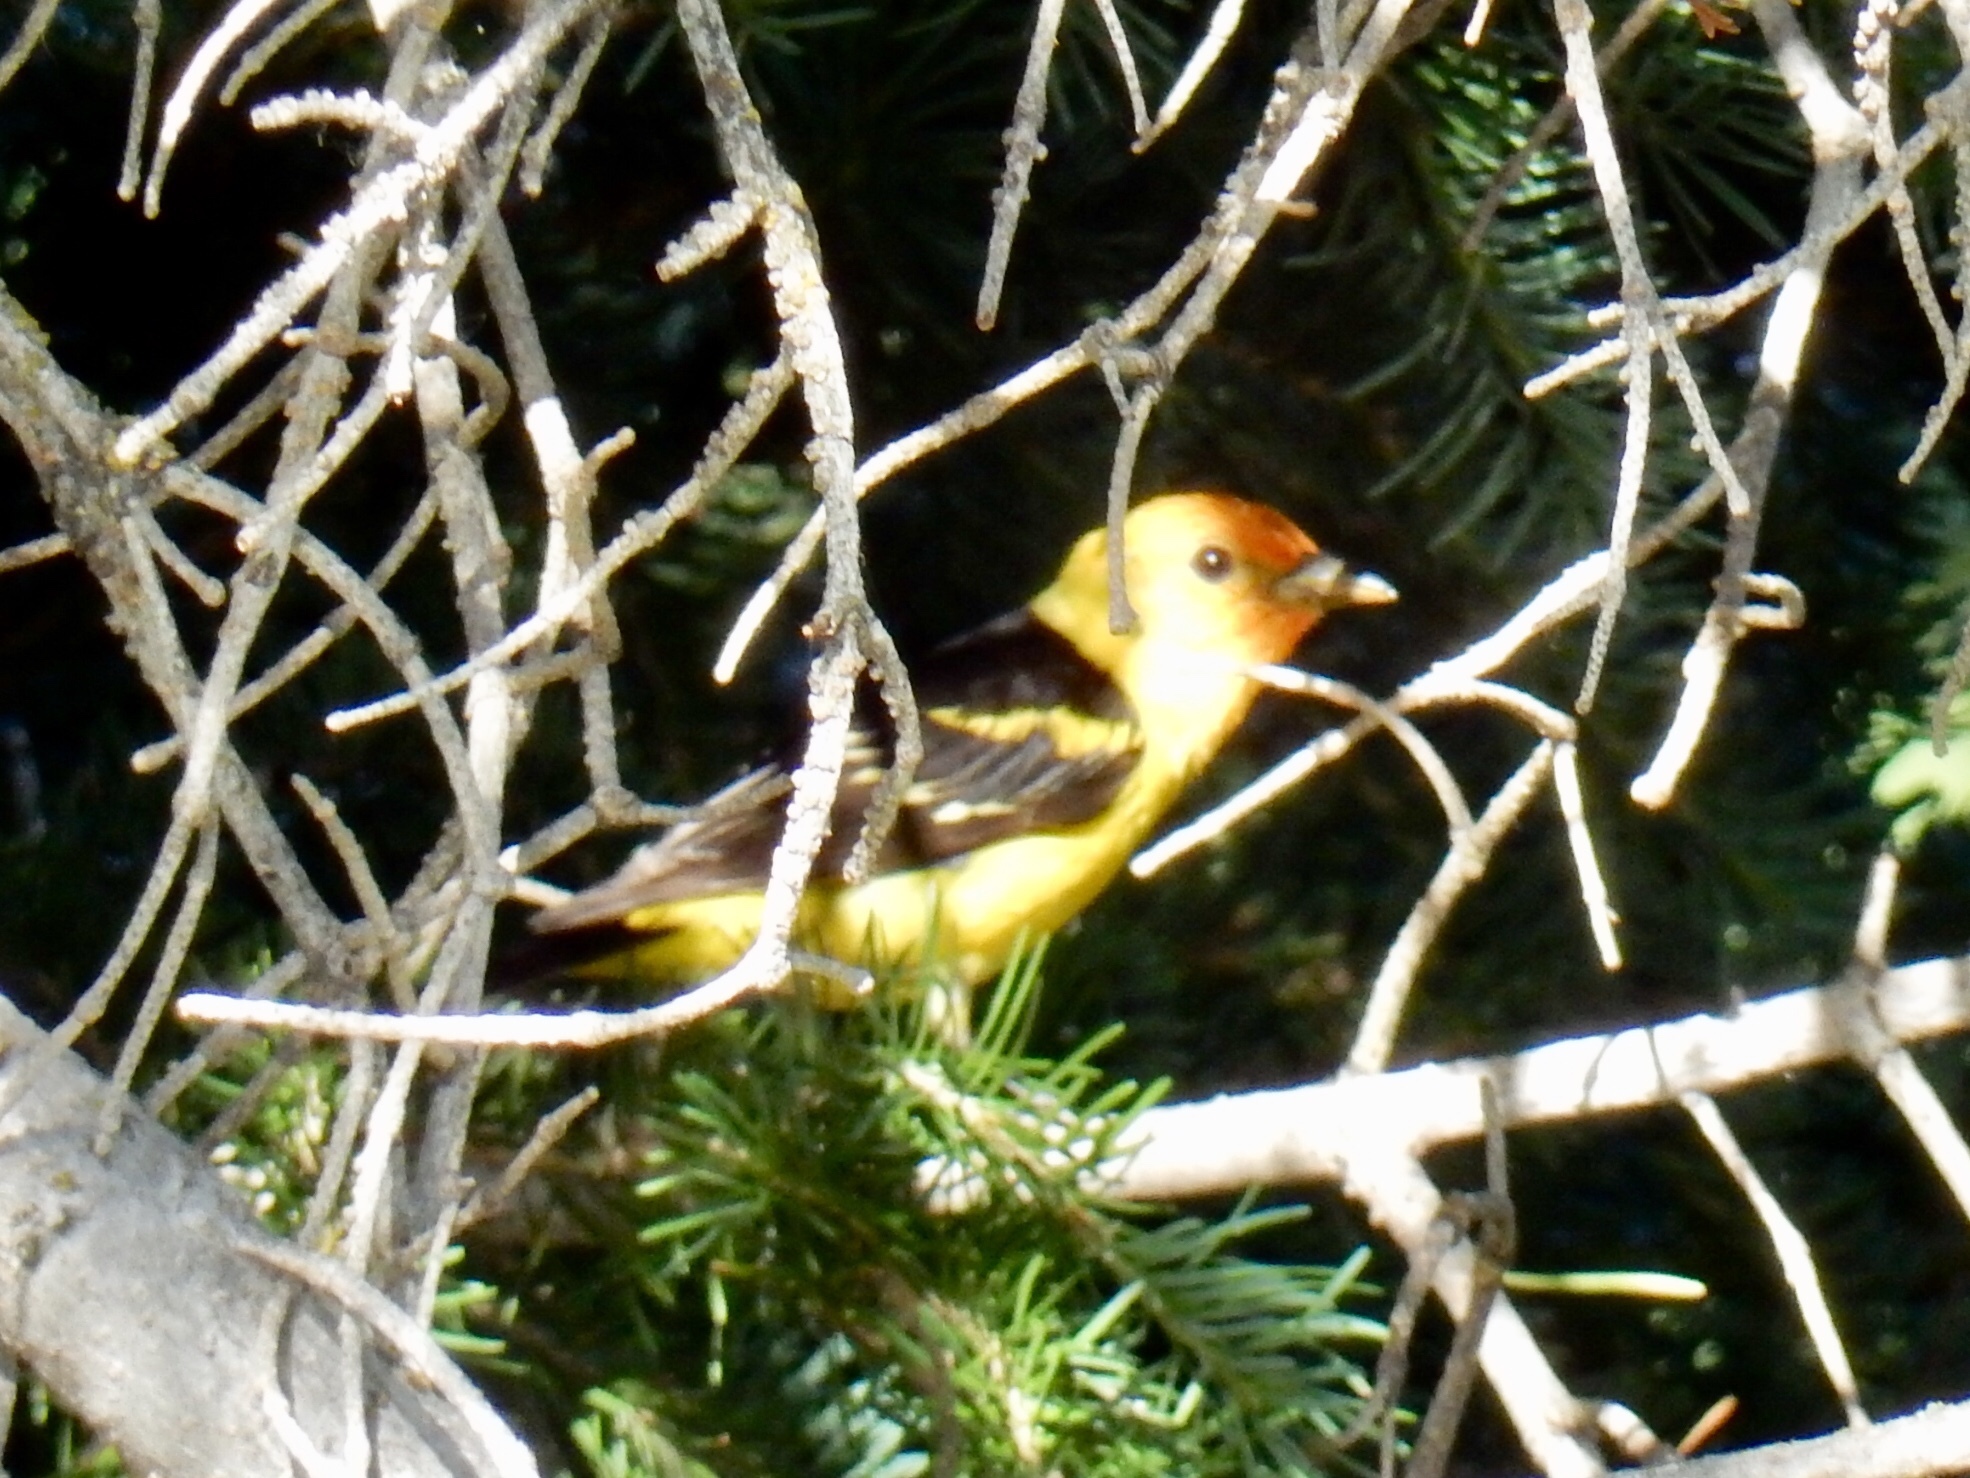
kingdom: Animalia
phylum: Chordata
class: Aves
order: Passeriformes
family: Cardinalidae
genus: Piranga
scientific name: Piranga ludoviciana
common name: Western tanager
